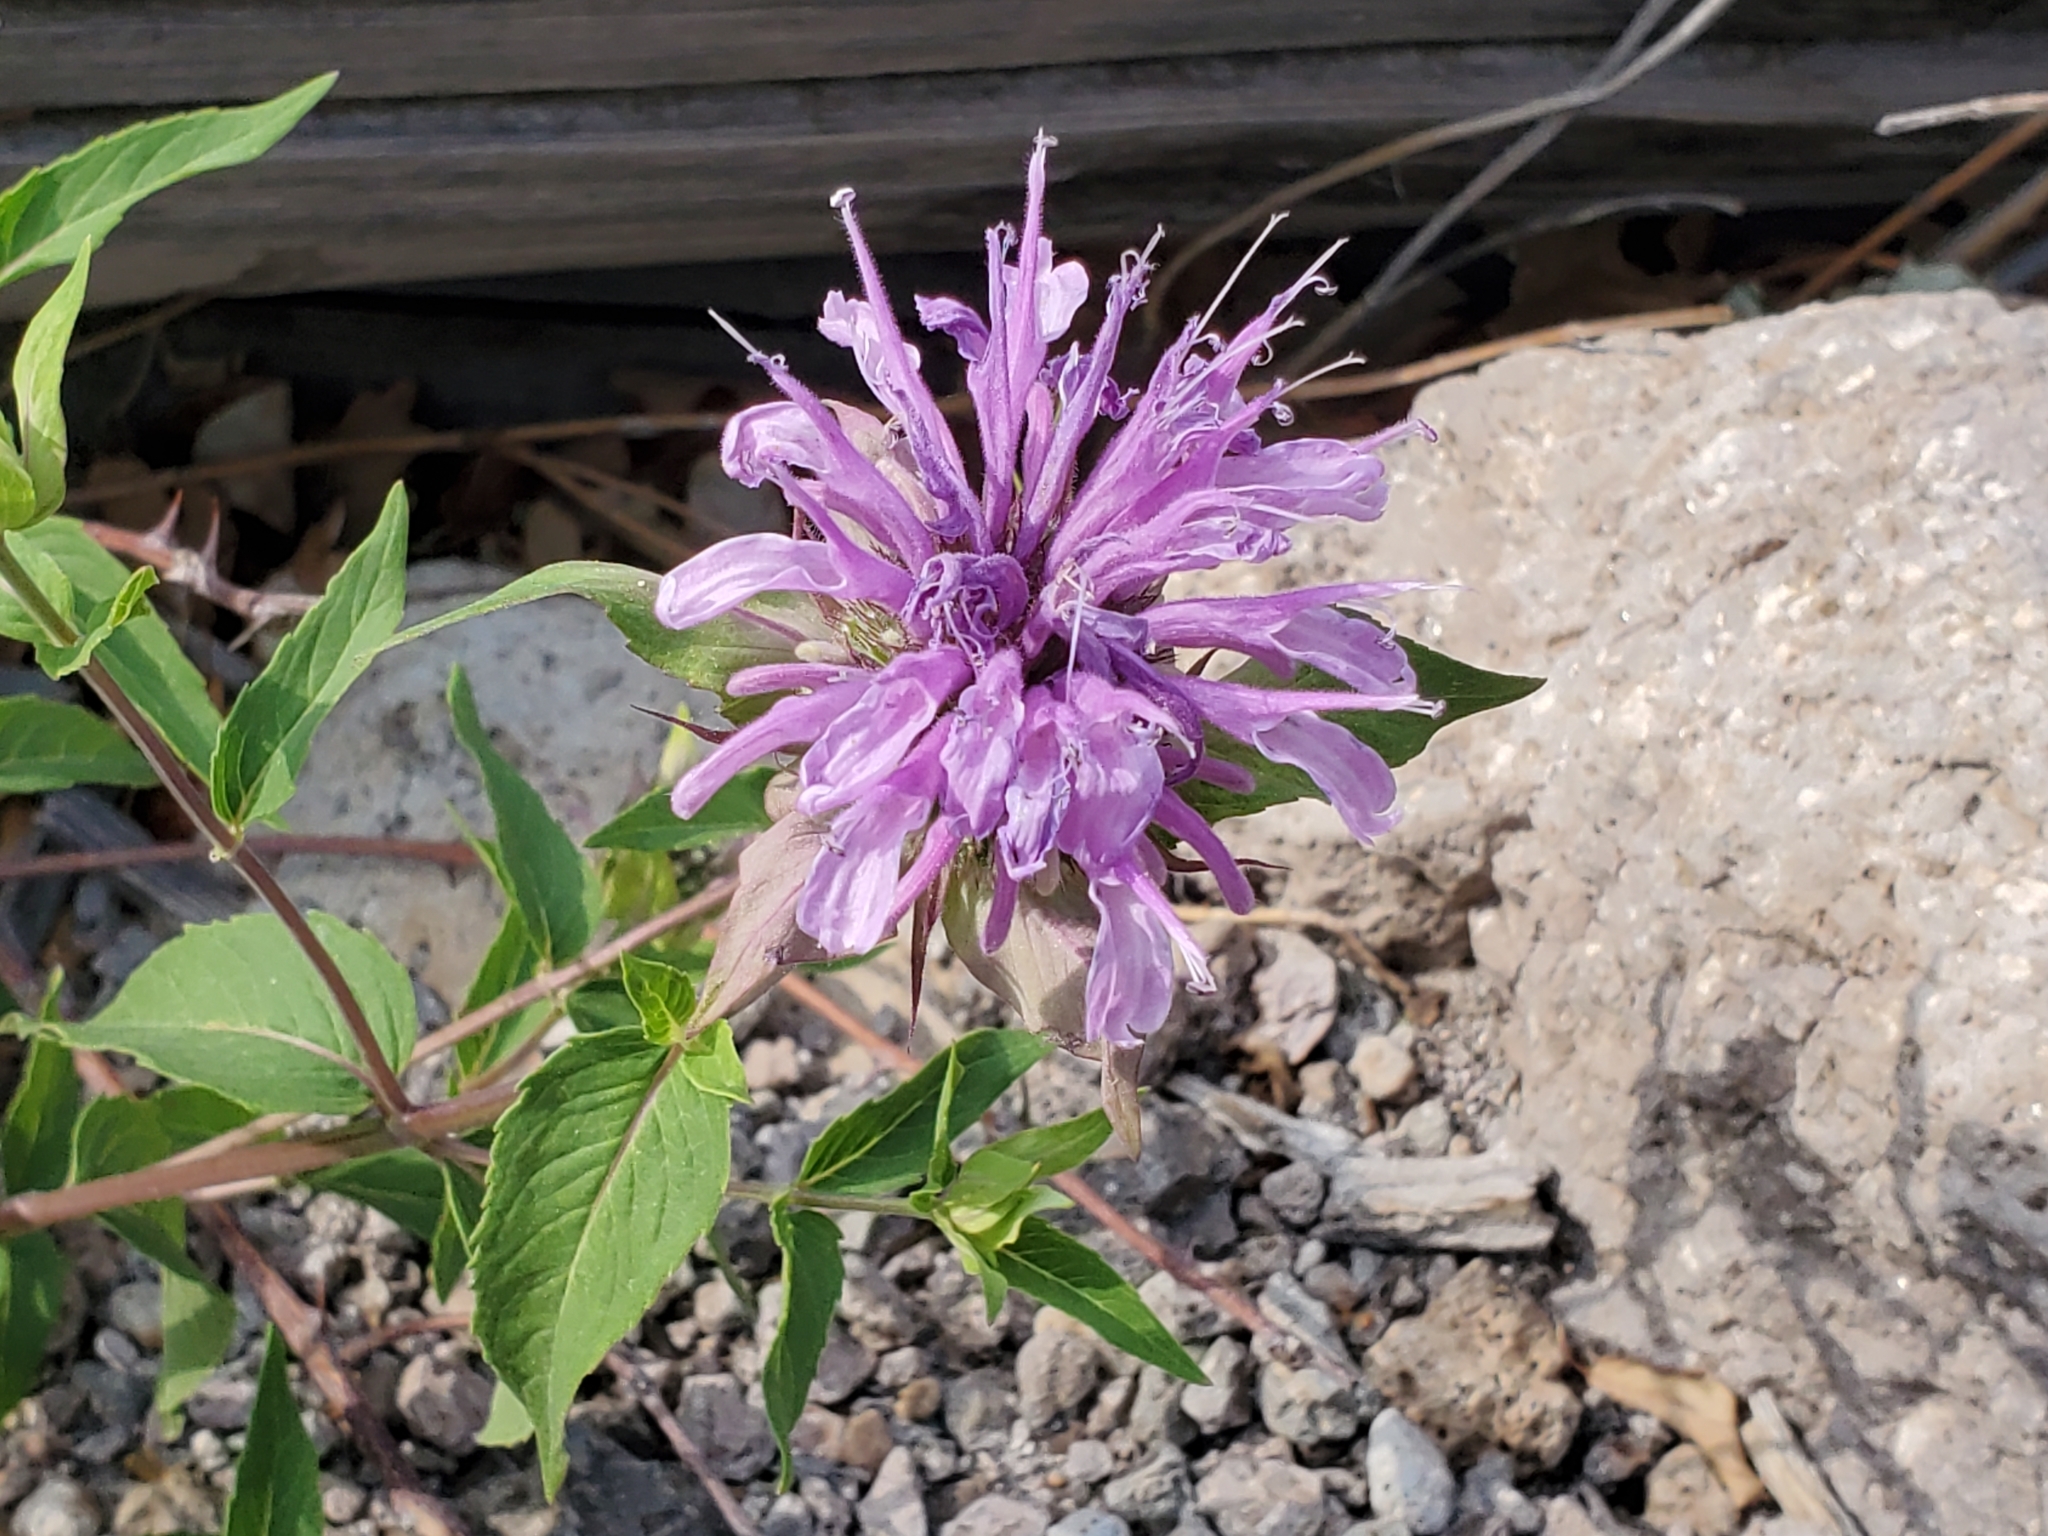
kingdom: Plantae
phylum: Tracheophyta
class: Magnoliopsida
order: Lamiales
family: Lamiaceae
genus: Monarda
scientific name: Monarda fistulosa
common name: Purple beebalm
